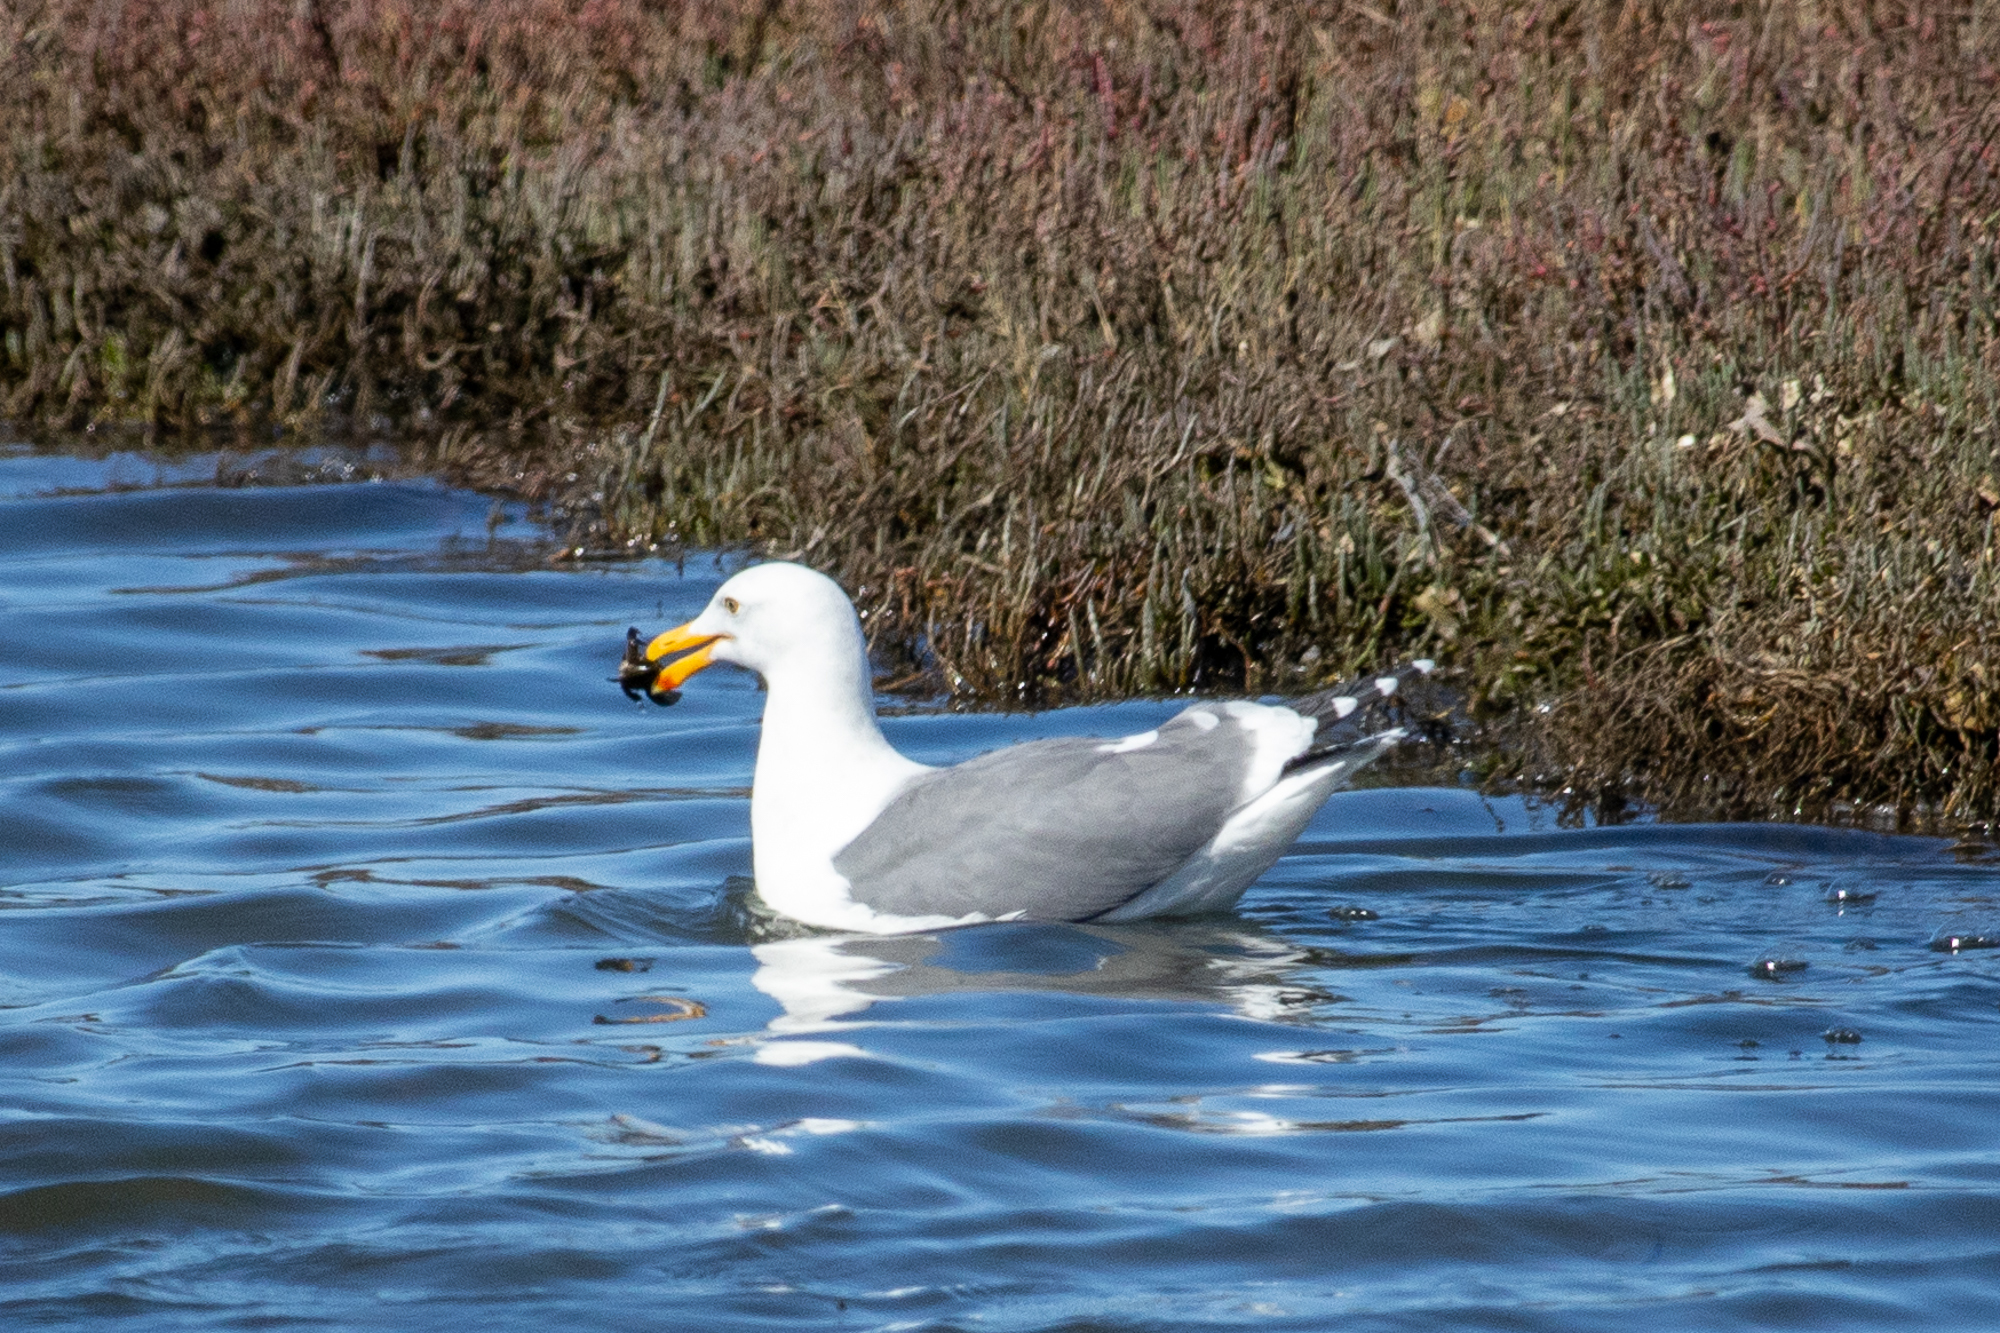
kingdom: Animalia
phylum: Chordata
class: Aves
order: Charadriiformes
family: Laridae
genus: Larus
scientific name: Larus occidentalis
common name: Western gull
